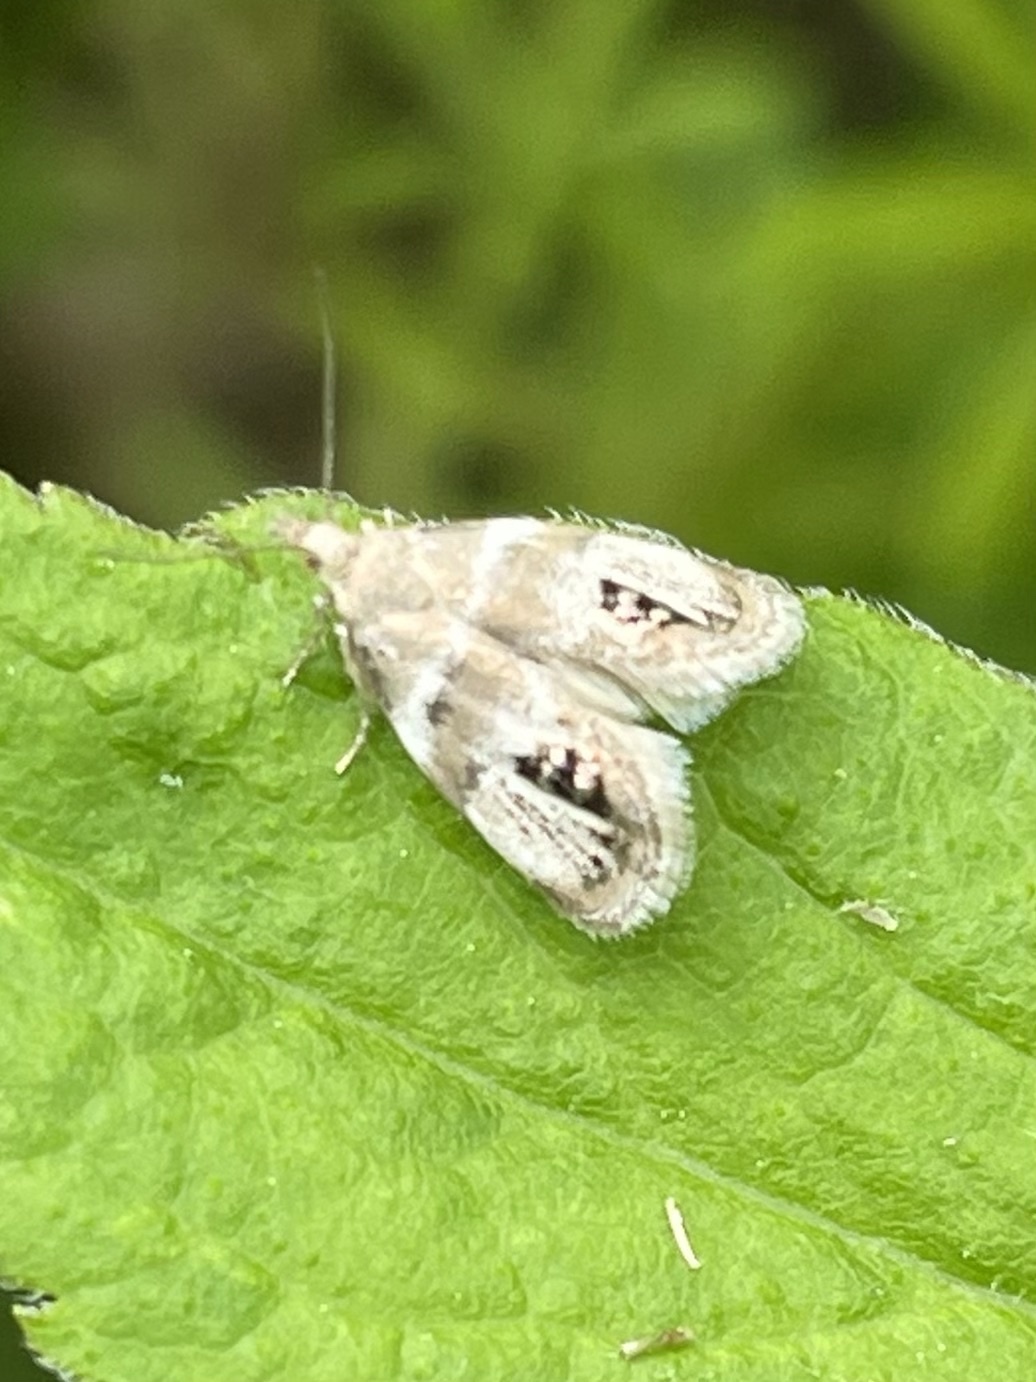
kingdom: Animalia
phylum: Arthropoda
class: Insecta
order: Lepidoptera
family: Choreutidae
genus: Pseudcaloreas
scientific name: Pseudcaloreas extrincicella
